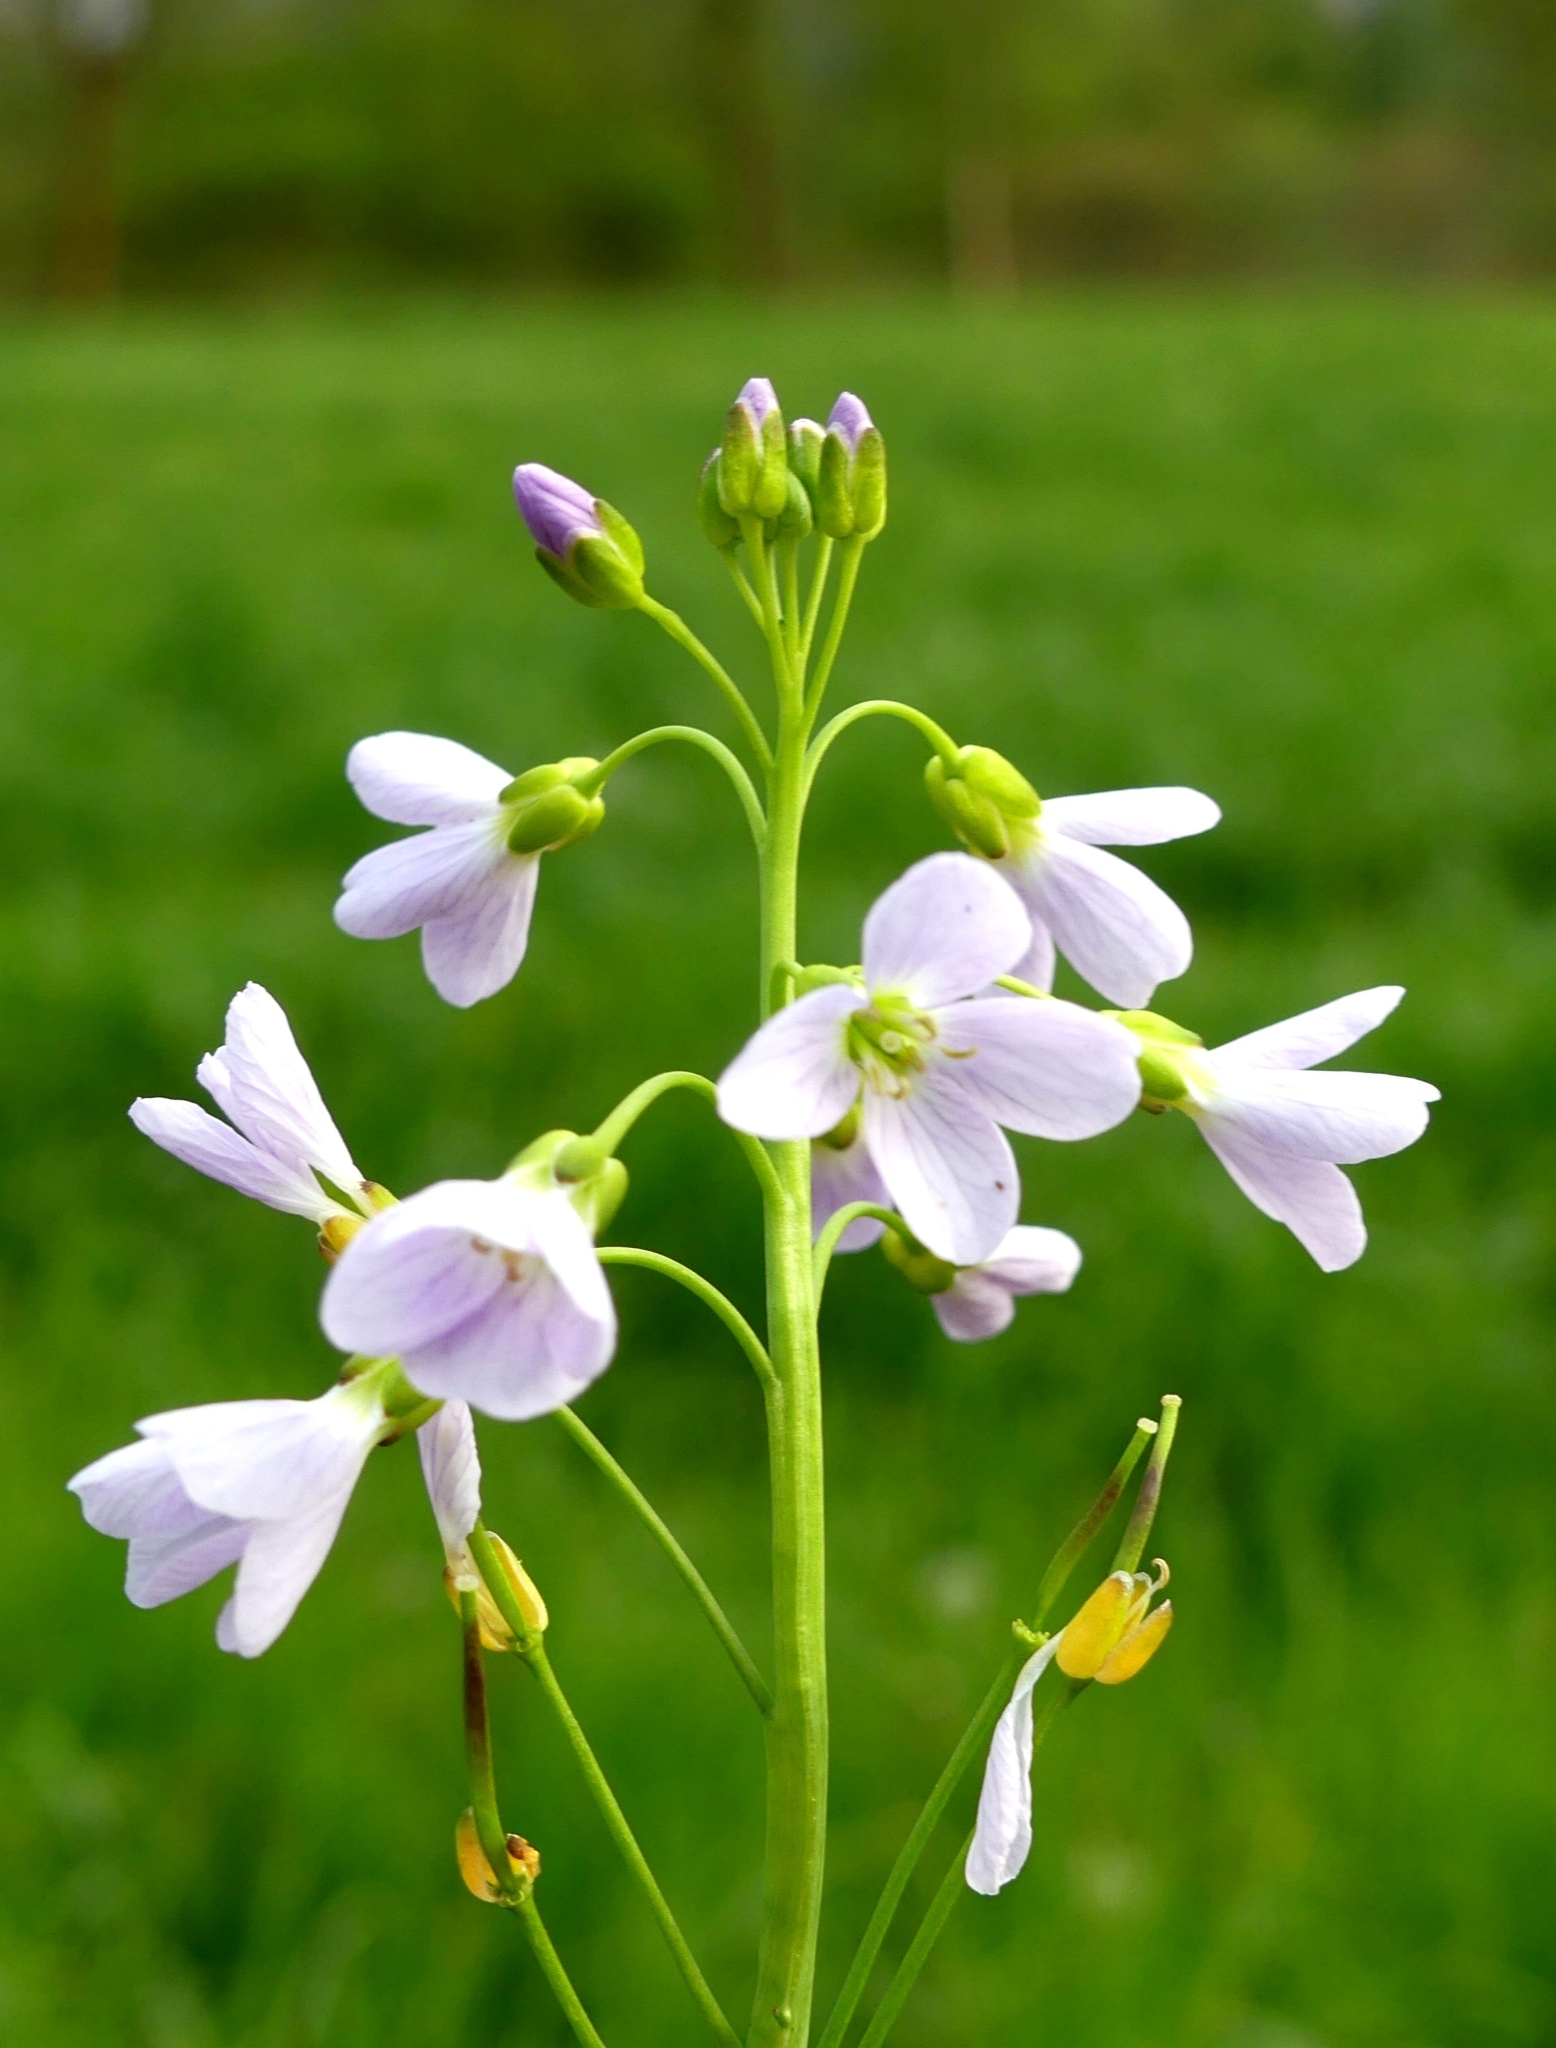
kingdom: Plantae
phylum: Tracheophyta
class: Magnoliopsida
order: Brassicales
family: Brassicaceae
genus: Cardamine
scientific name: Cardamine pratensis
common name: Cuckoo flower
